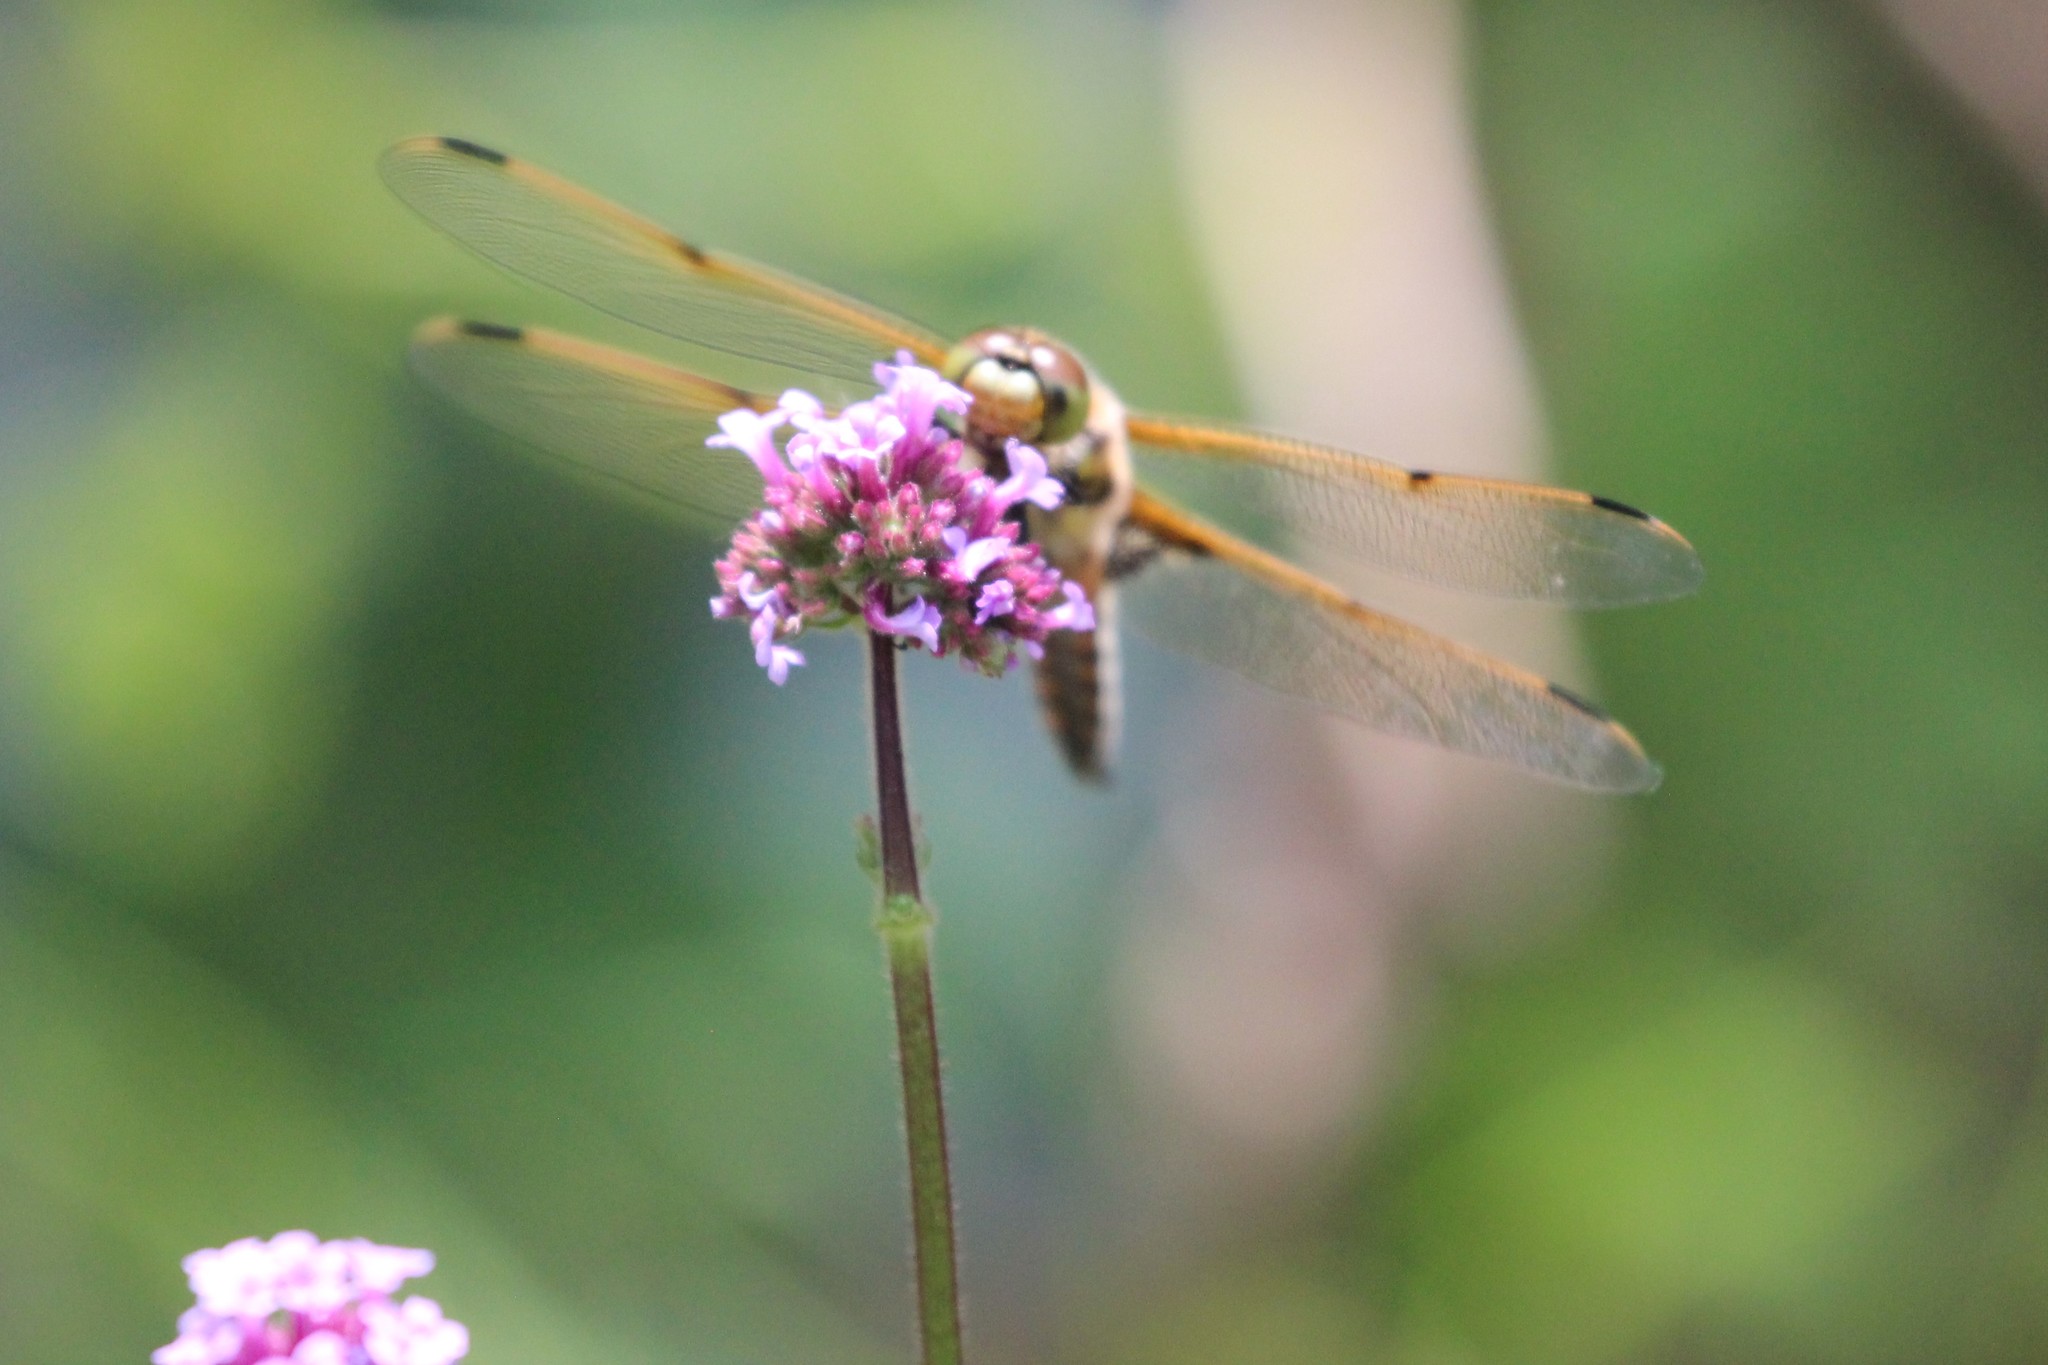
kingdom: Animalia
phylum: Arthropoda
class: Insecta
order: Odonata
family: Libellulidae
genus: Libellula
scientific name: Libellula quadrimaculata
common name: Four-spotted chaser
